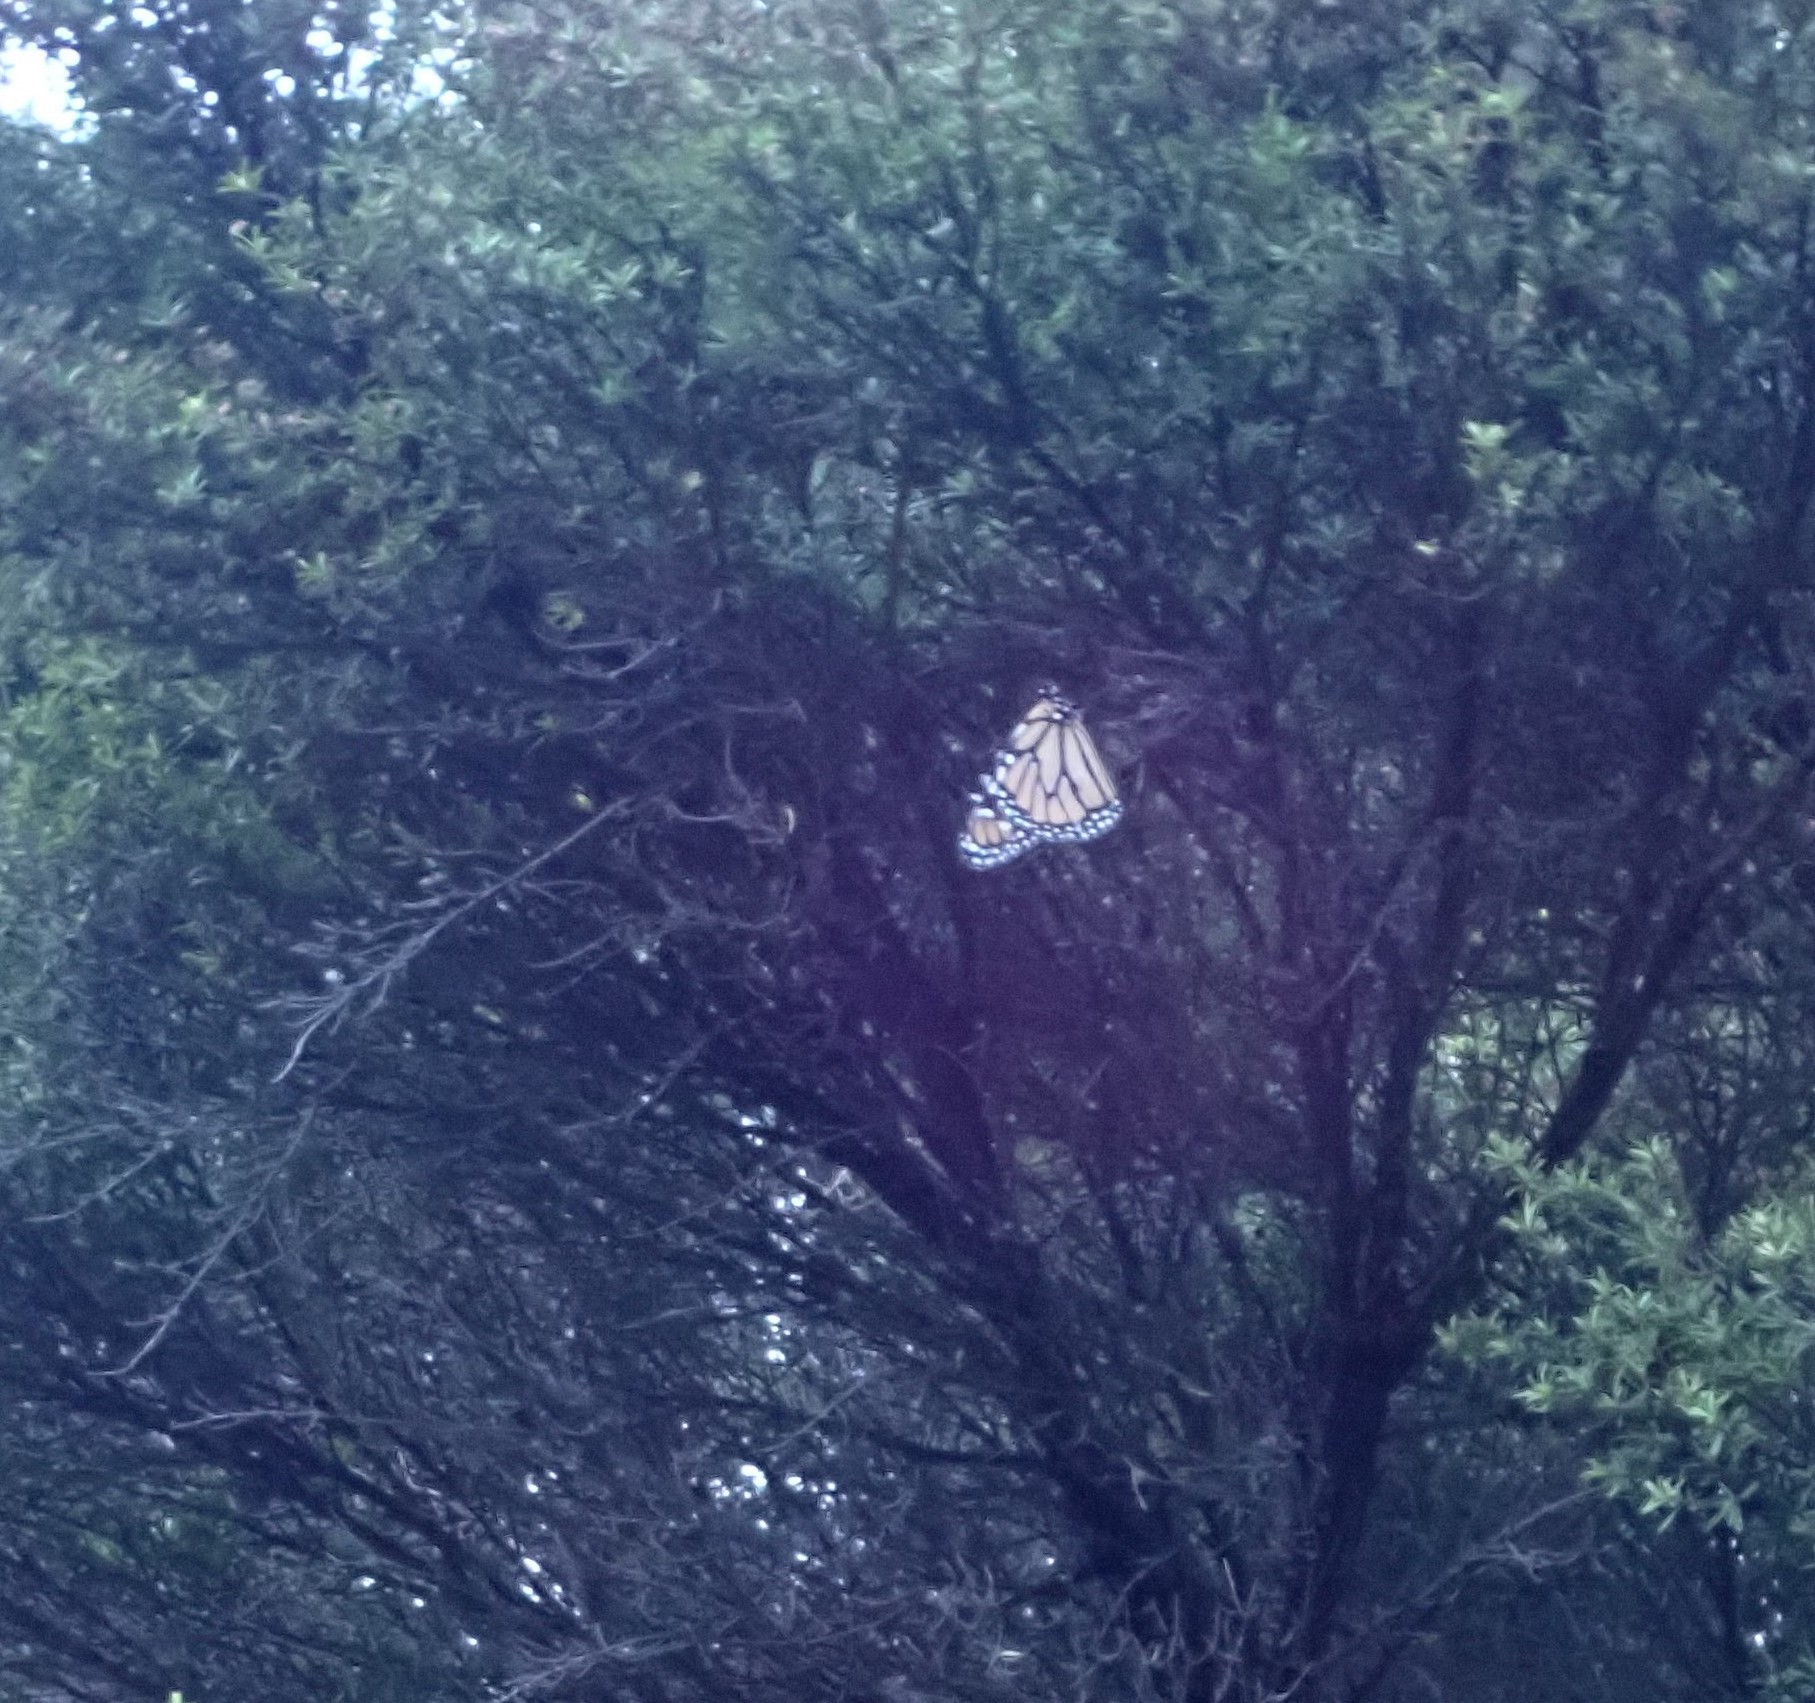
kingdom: Animalia
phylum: Arthropoda
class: Insecta
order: Lepidoptera
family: Nymphalidae
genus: Danaus
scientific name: Danaus plexippus
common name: Monarch
